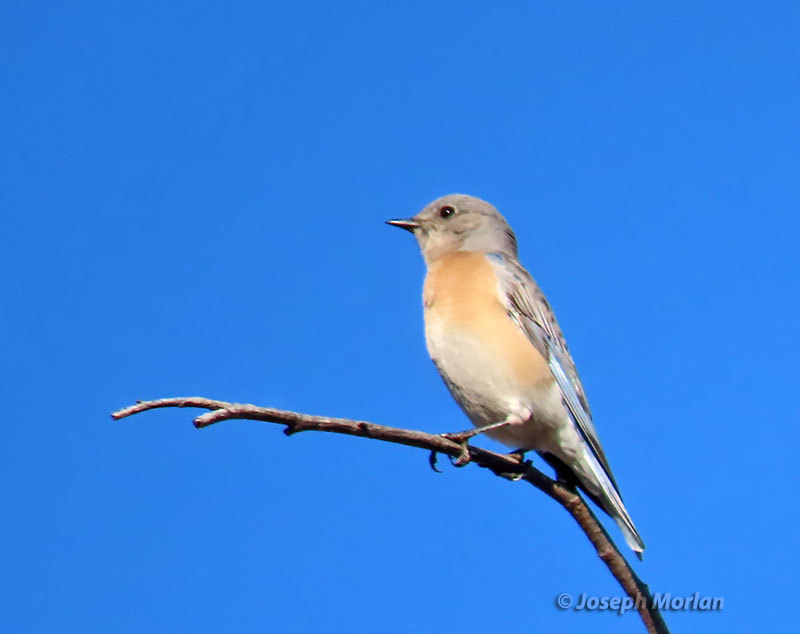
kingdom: Animalia
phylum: Chordata
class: Aves
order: Passeriformes
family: Turdidae
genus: Sialia
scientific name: Sialia mexicana
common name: Western bluebird
